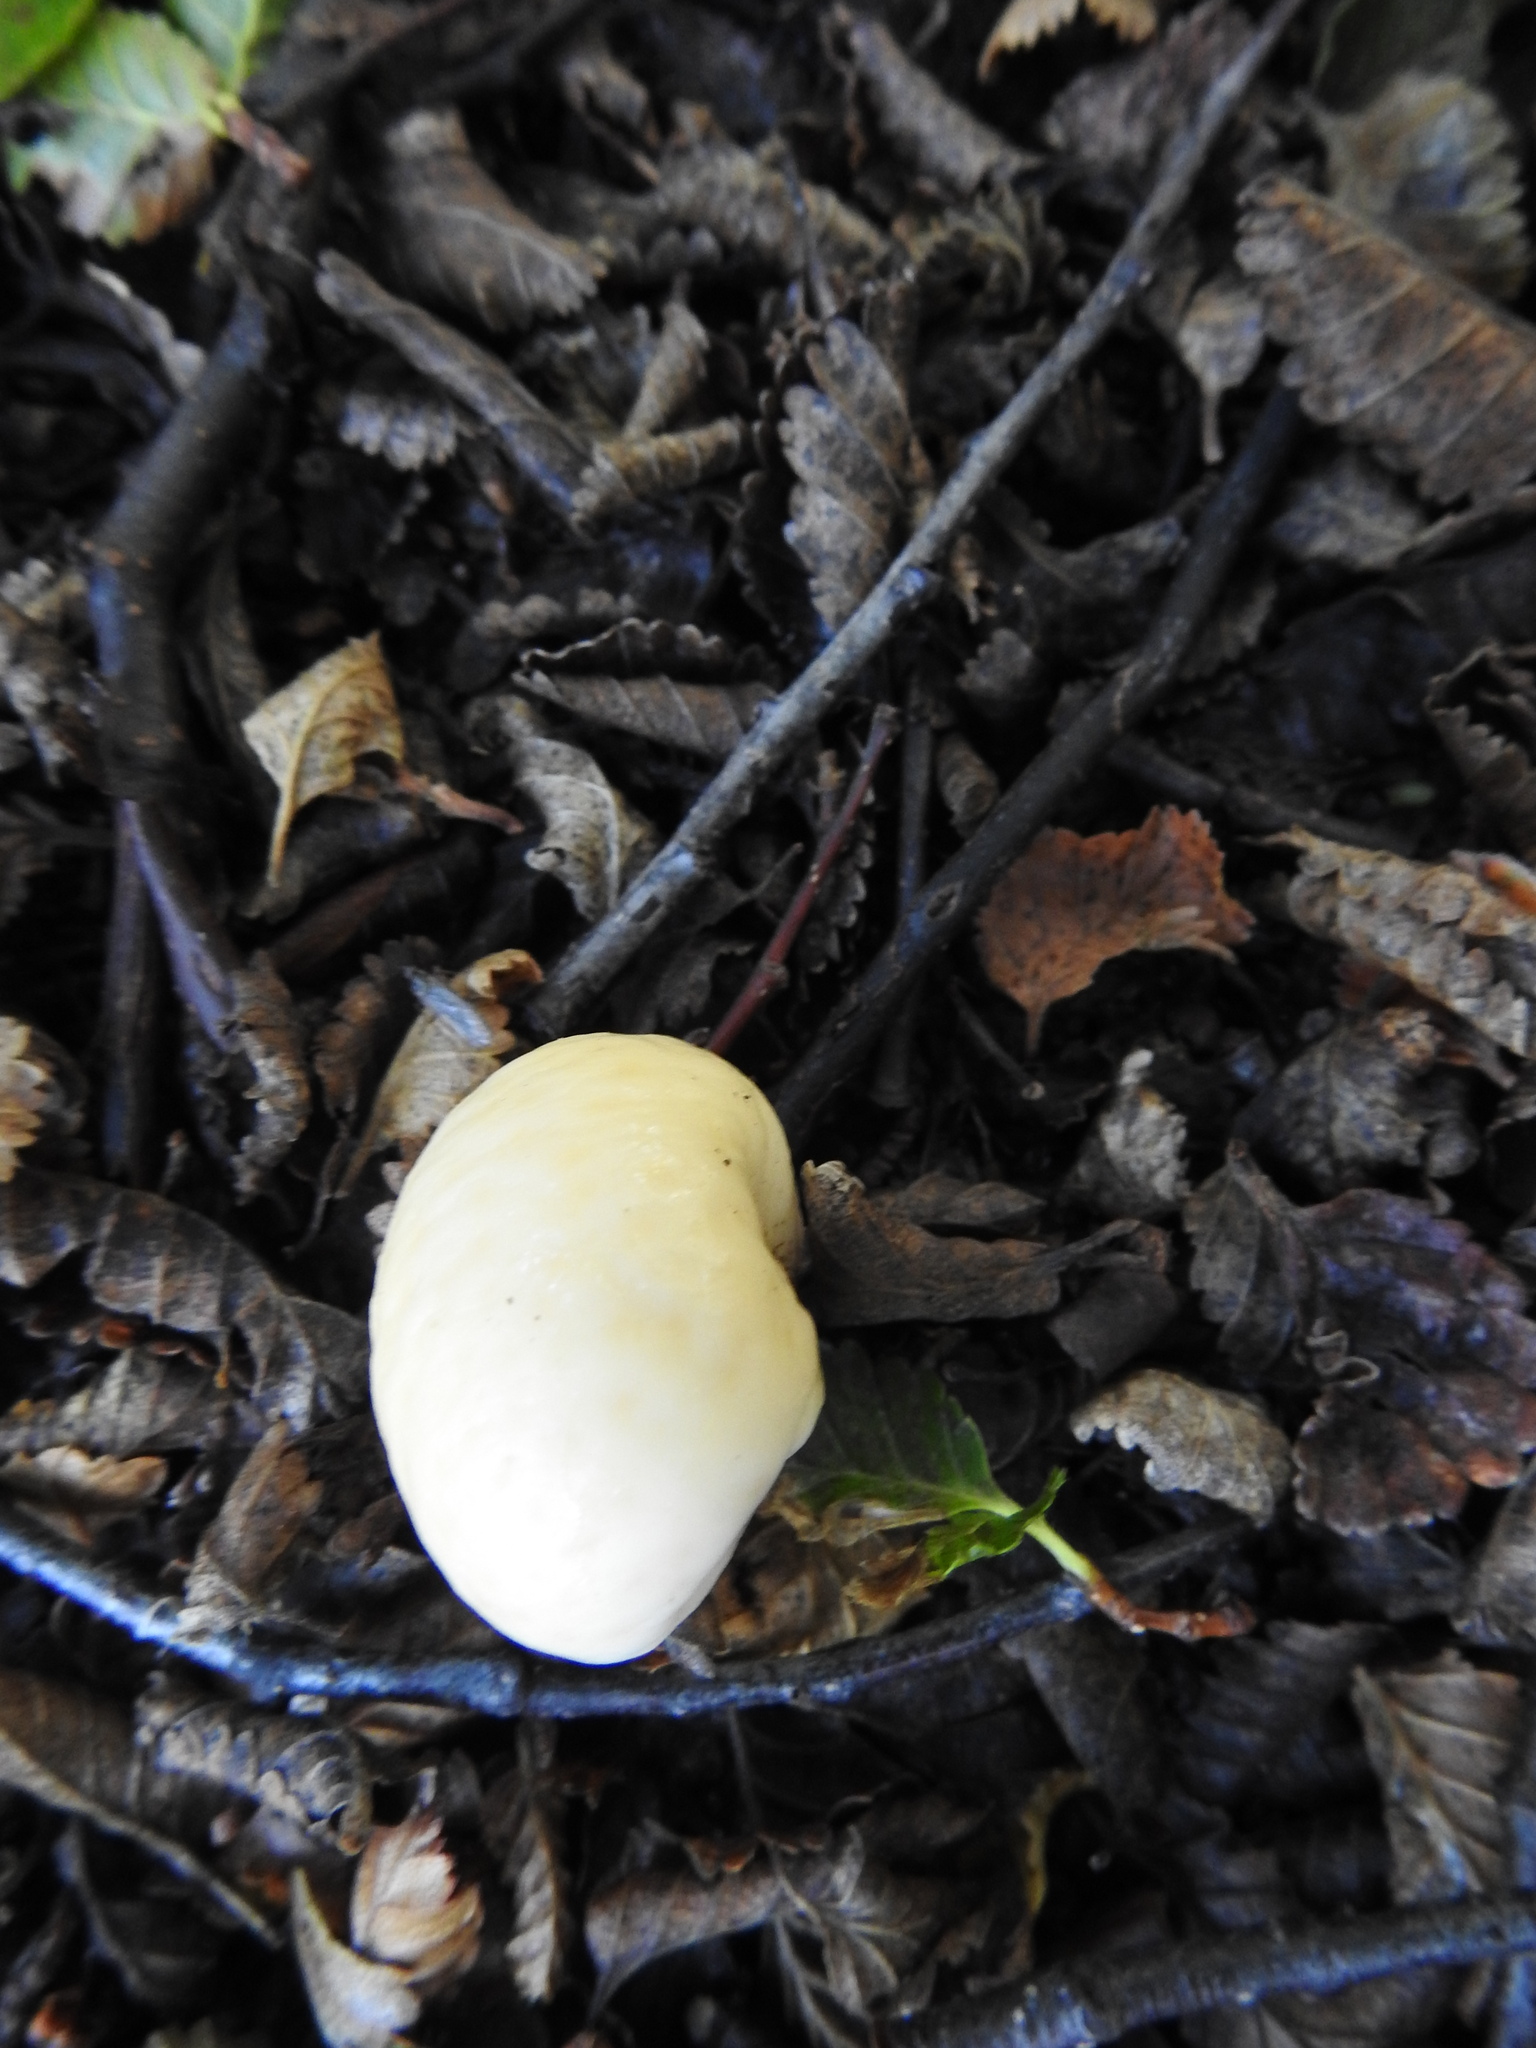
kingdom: Fungi
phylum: Ascomycota
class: Leotiomycetes
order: Cyttariales
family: Cyttariaceae
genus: Cyttaria
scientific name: Cyttaria darwinii
